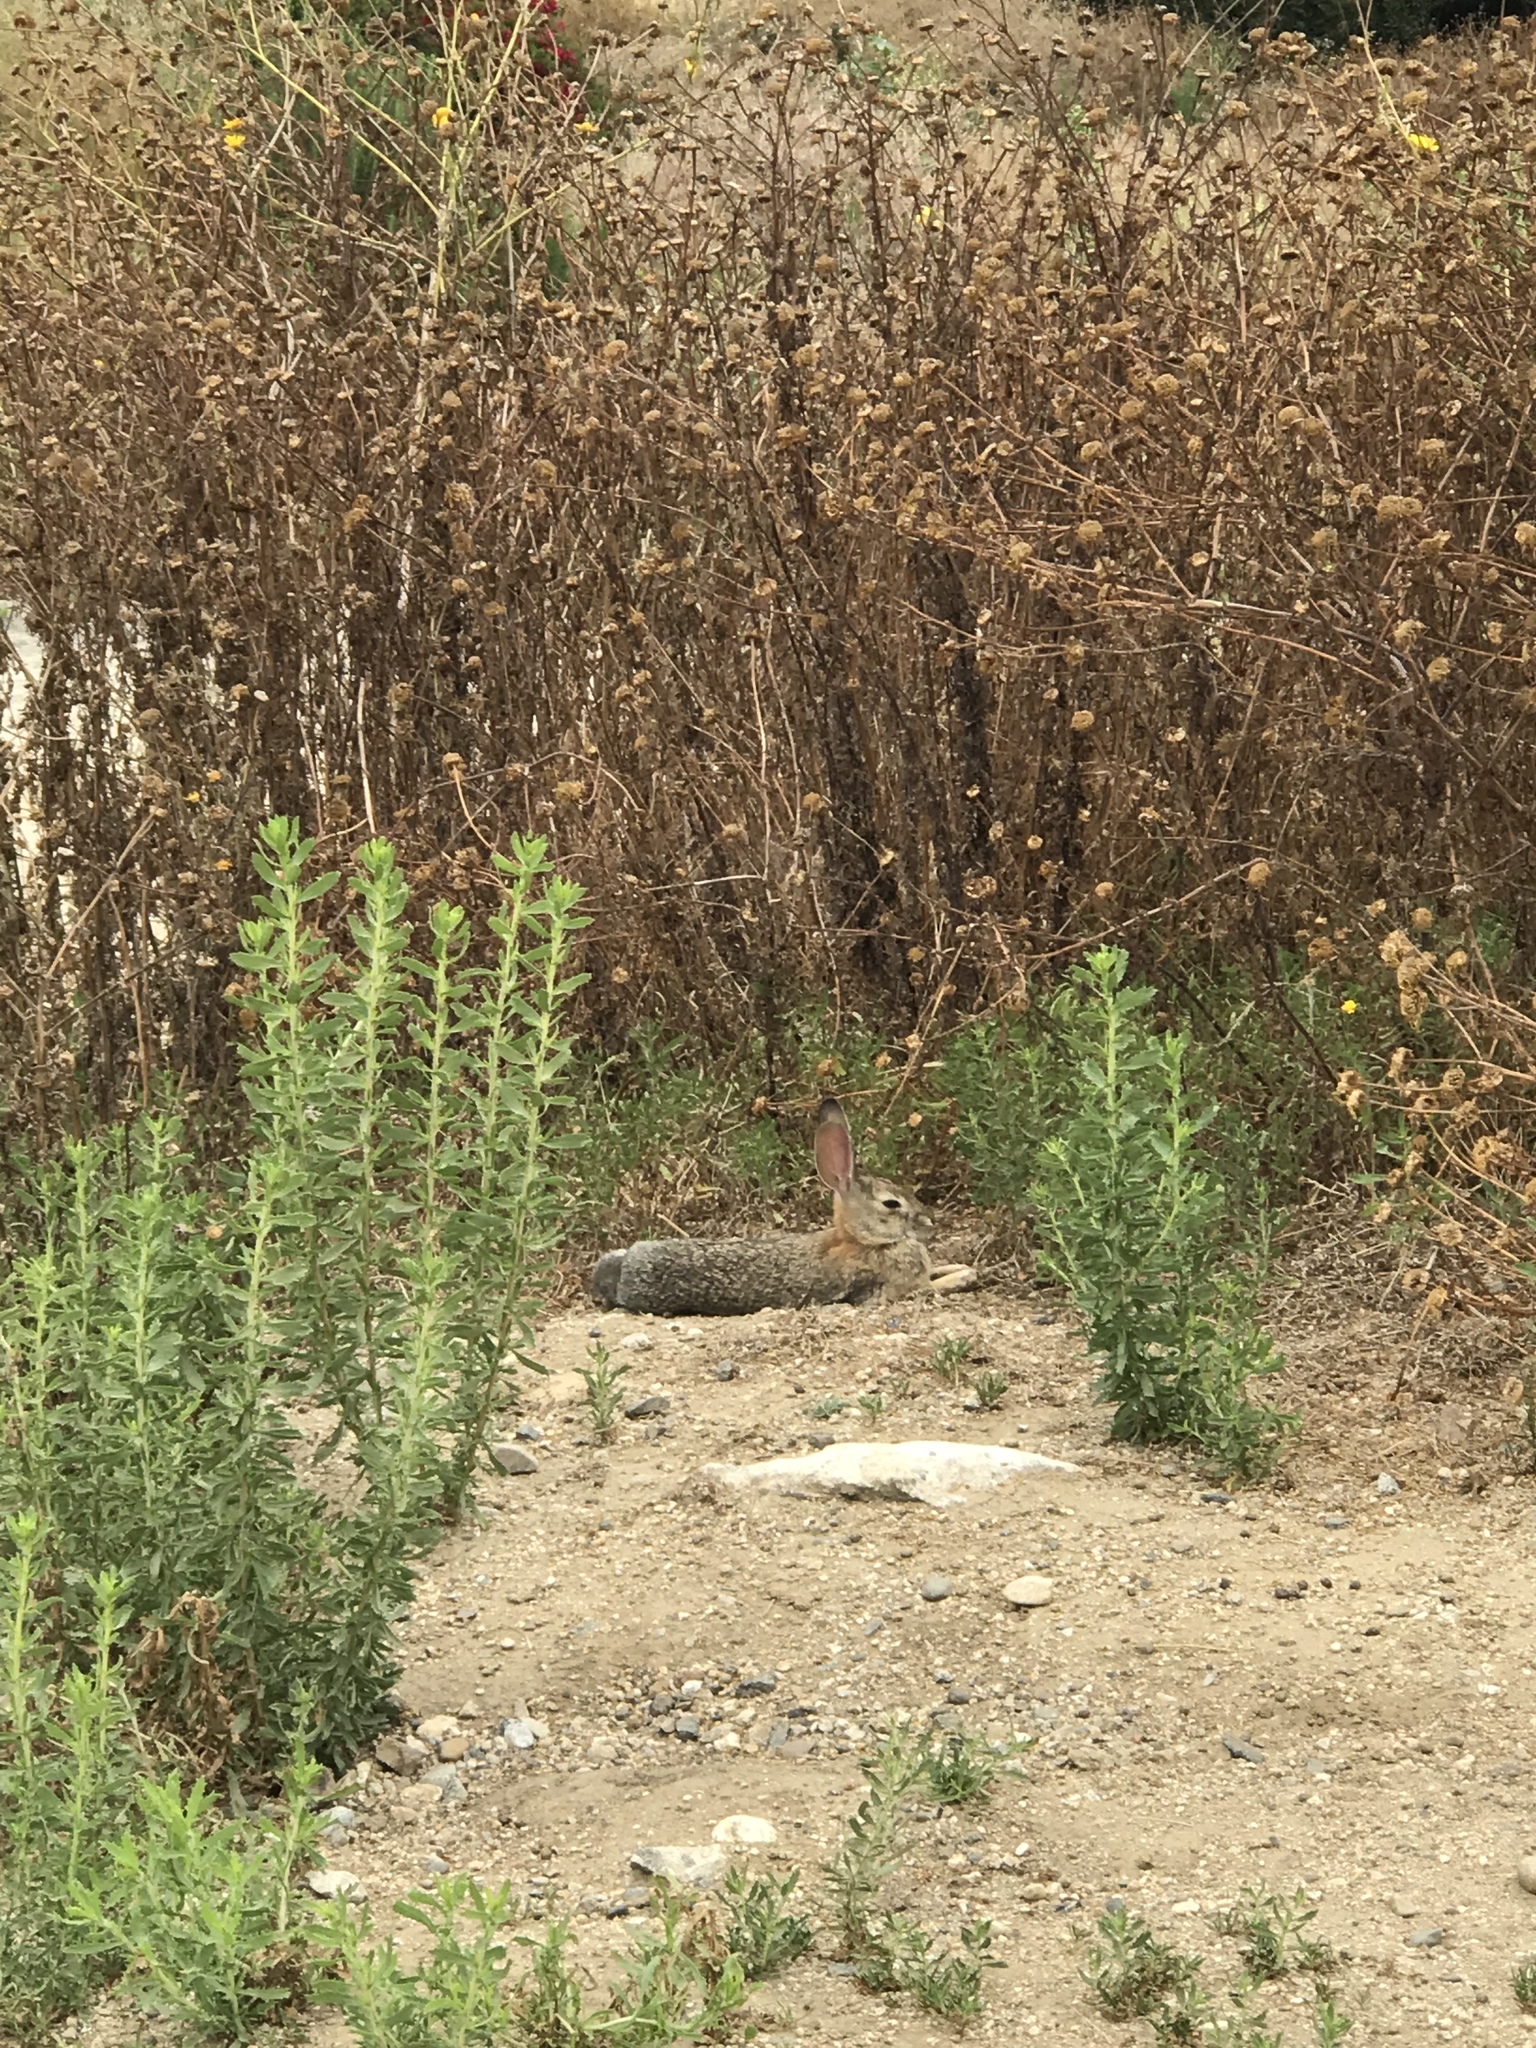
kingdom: Animalia
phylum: Chordata
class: Mammalia
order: Lagomorpha
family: Leporidae
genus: Sylvilagus
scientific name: Sylvilagus audubonii
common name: Desert cottontail
